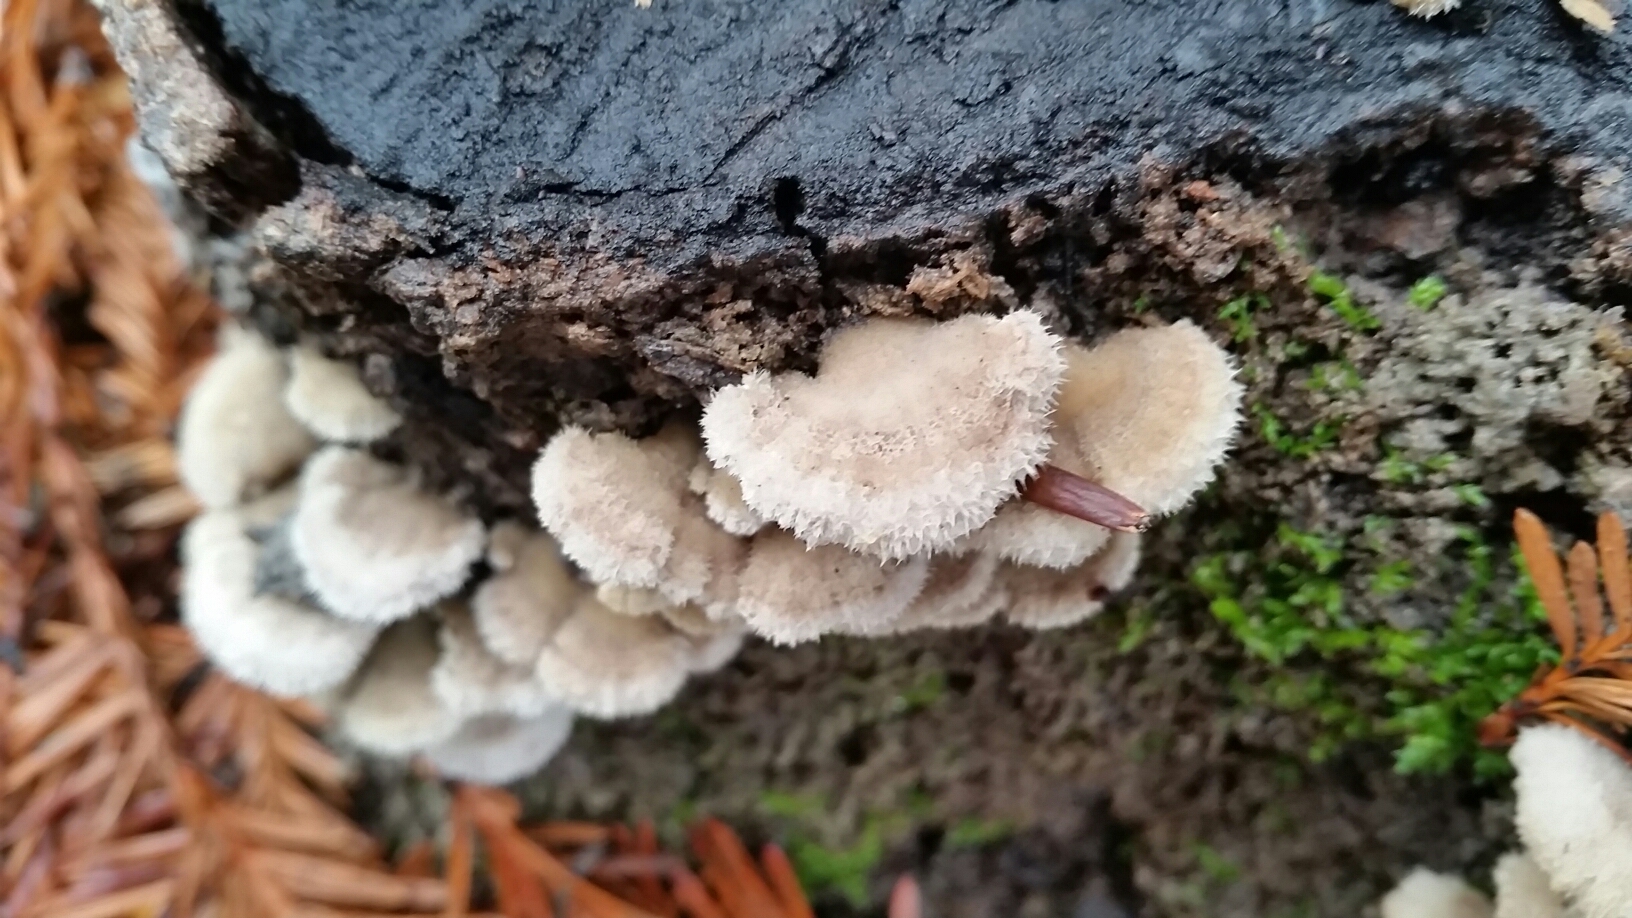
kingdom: Fungi
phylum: Basidiomycota
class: Agaricomycetes
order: Agaricales
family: Schizophyllaceae
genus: Schizophyllum
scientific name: Schizophyllum commune
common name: Common porecrust
